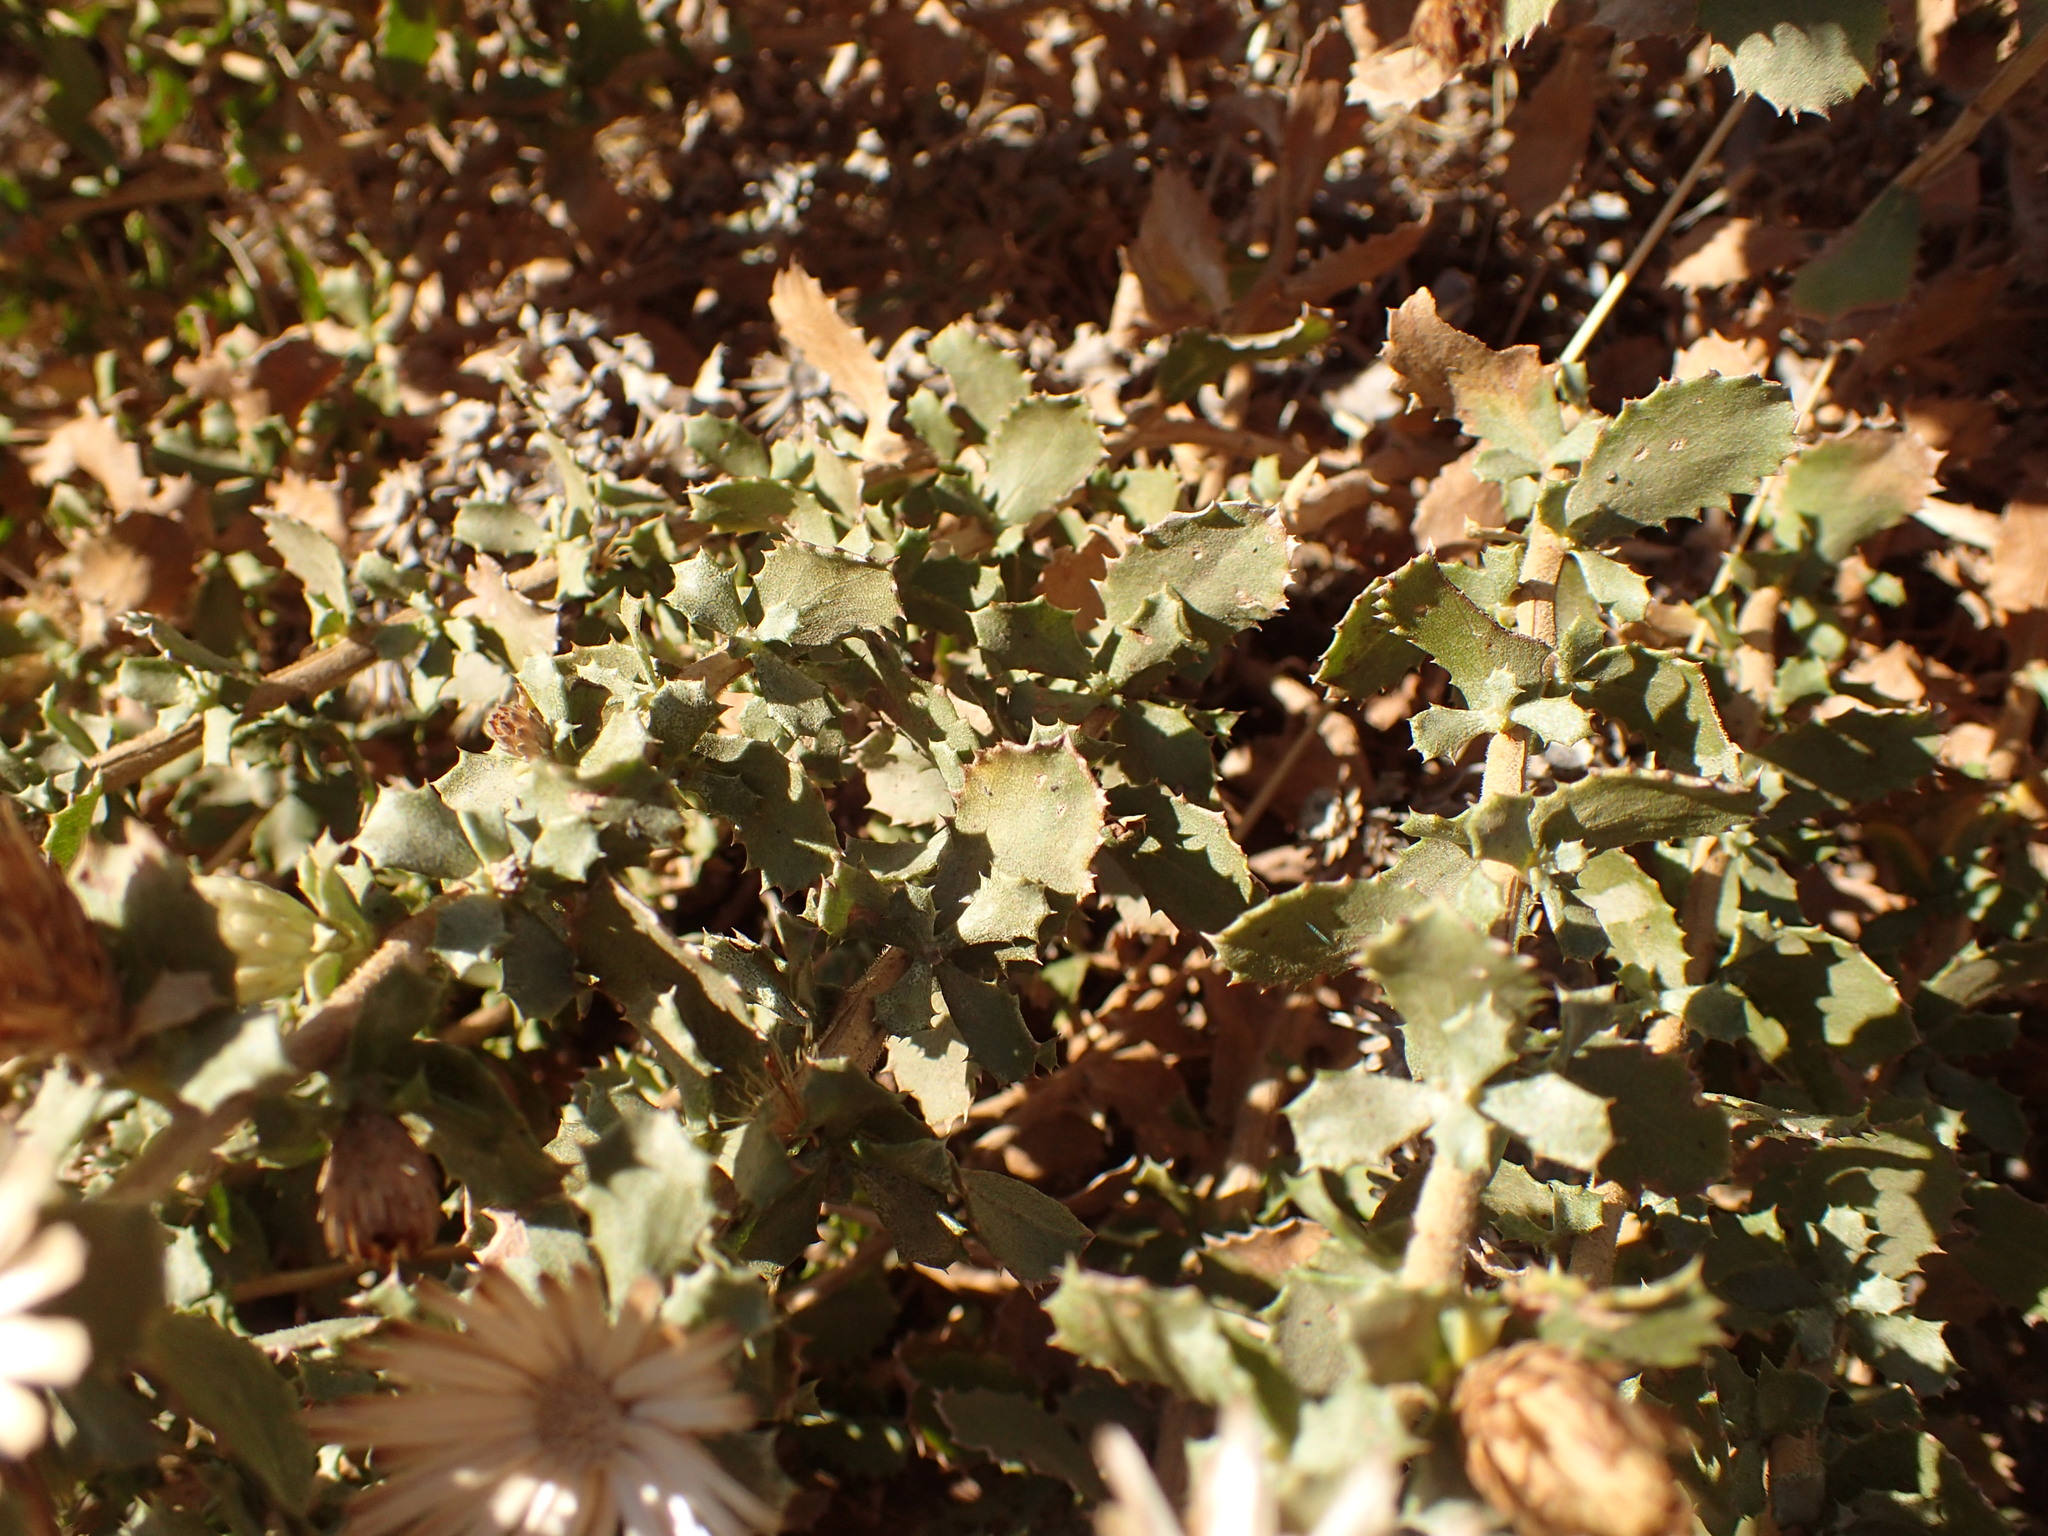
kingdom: Plantae
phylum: Tracheophyta
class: Magnoliopsida
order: Asterales
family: Asteraceae
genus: Hazardia
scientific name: Hazardia squarrosa
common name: Saw-tooth goldenbush
